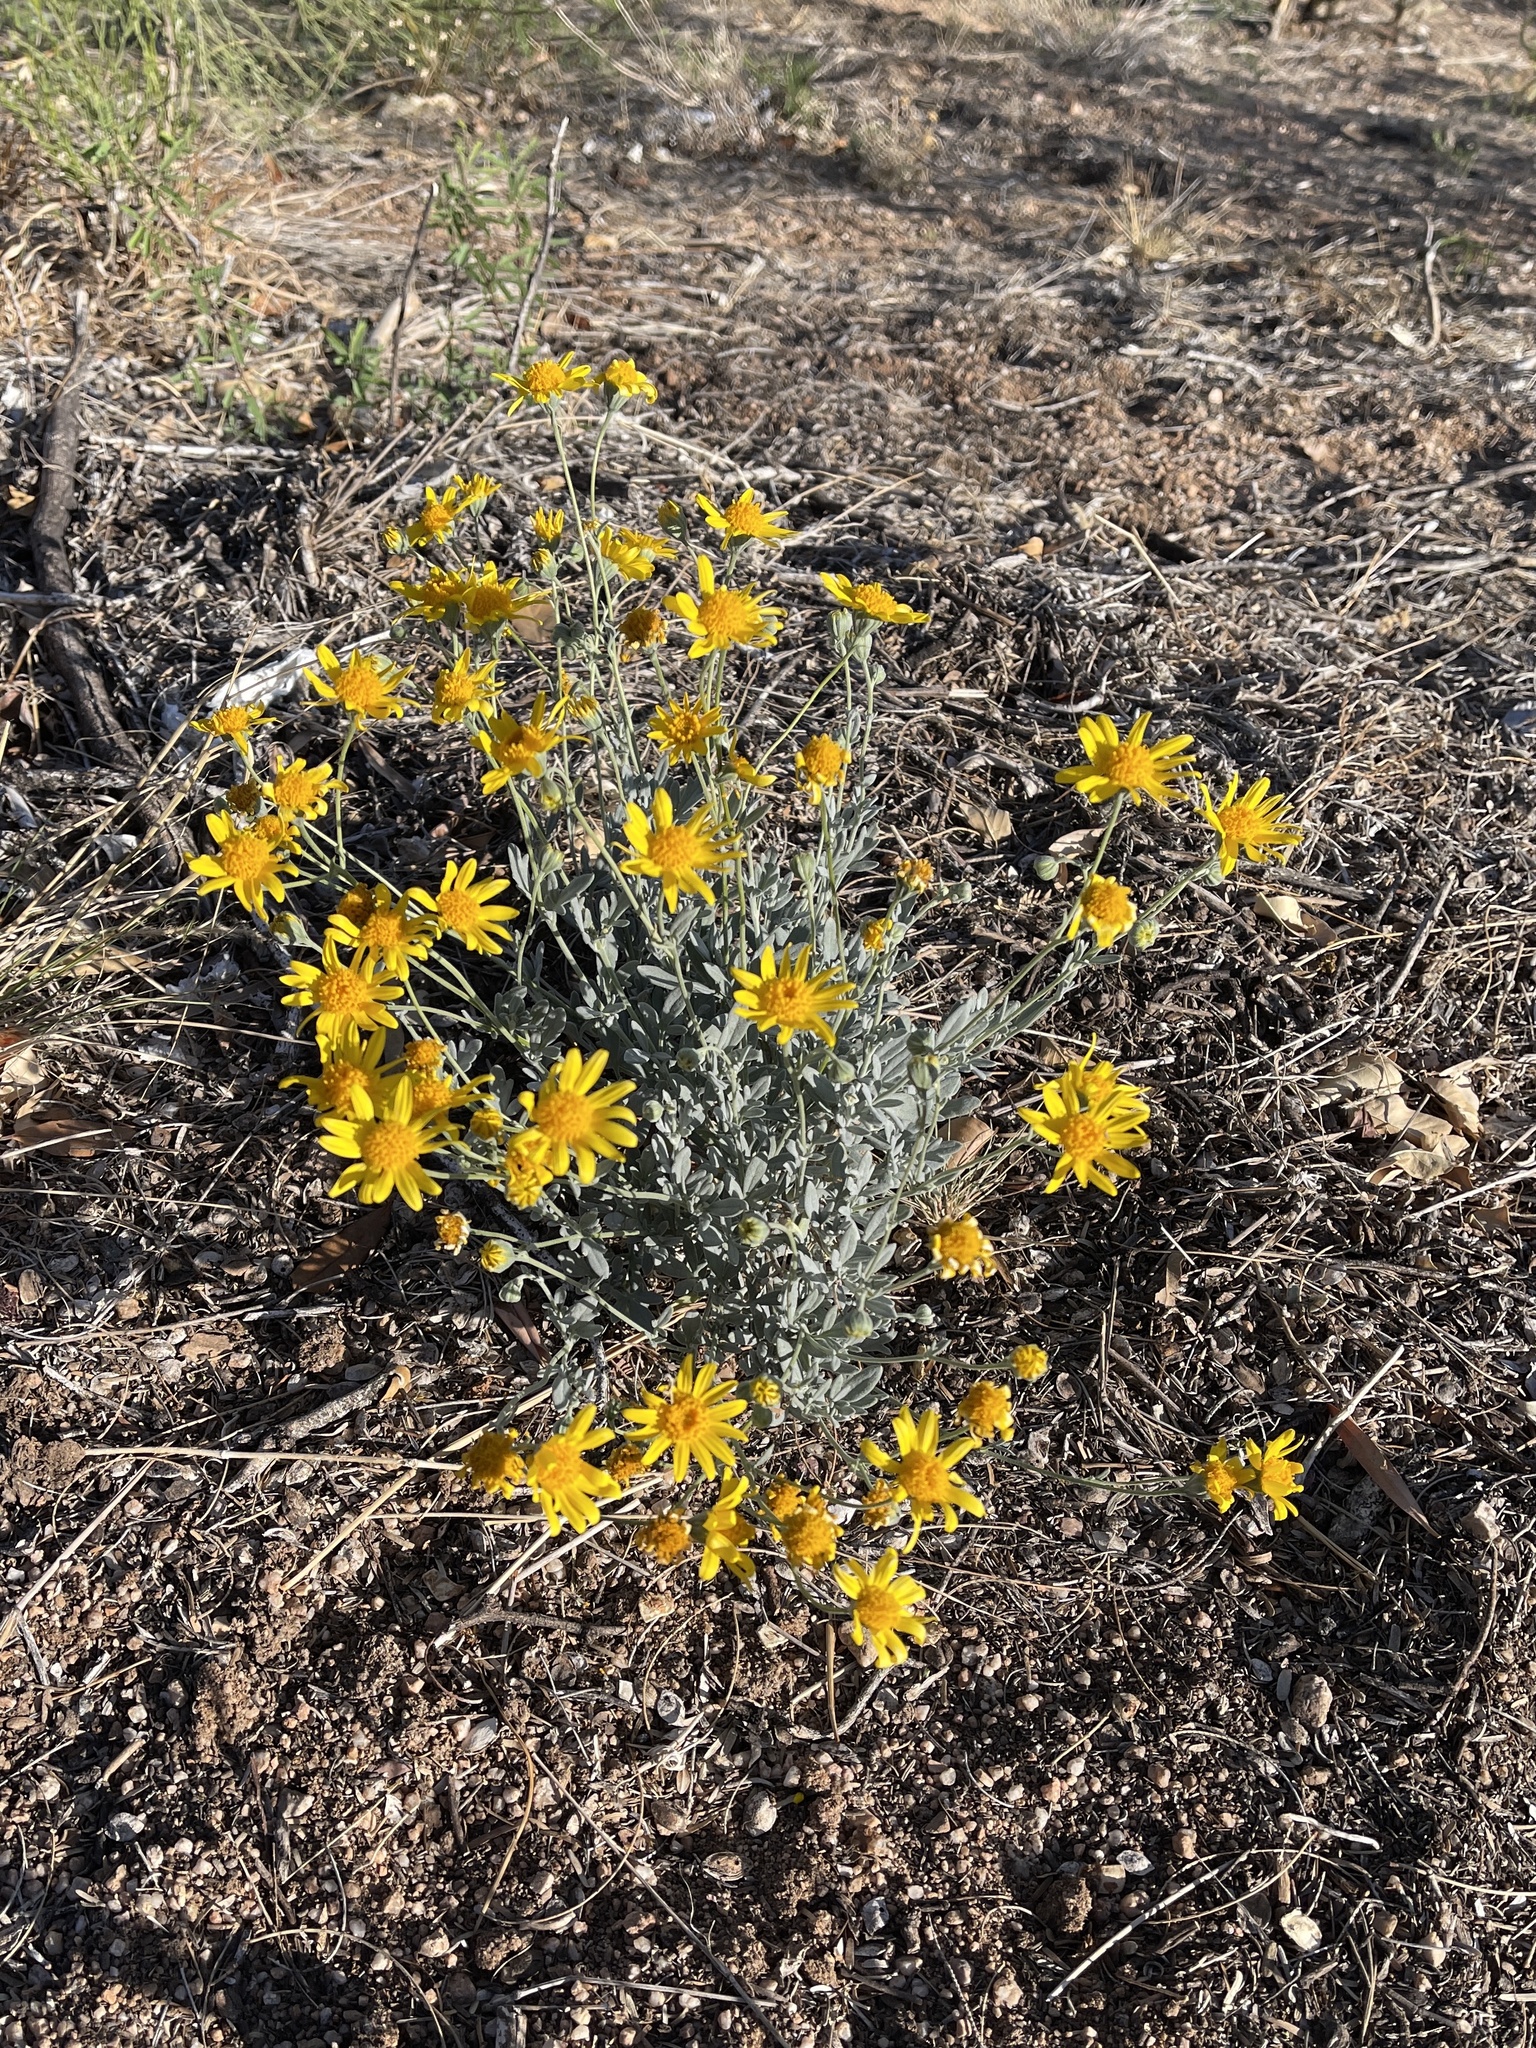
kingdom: Plantae
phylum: Tracheophyta
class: Magnoliopsida
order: Asterales
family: Asteraceae
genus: Picradeniopsis
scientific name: Picradeniopsis absinthifolia
